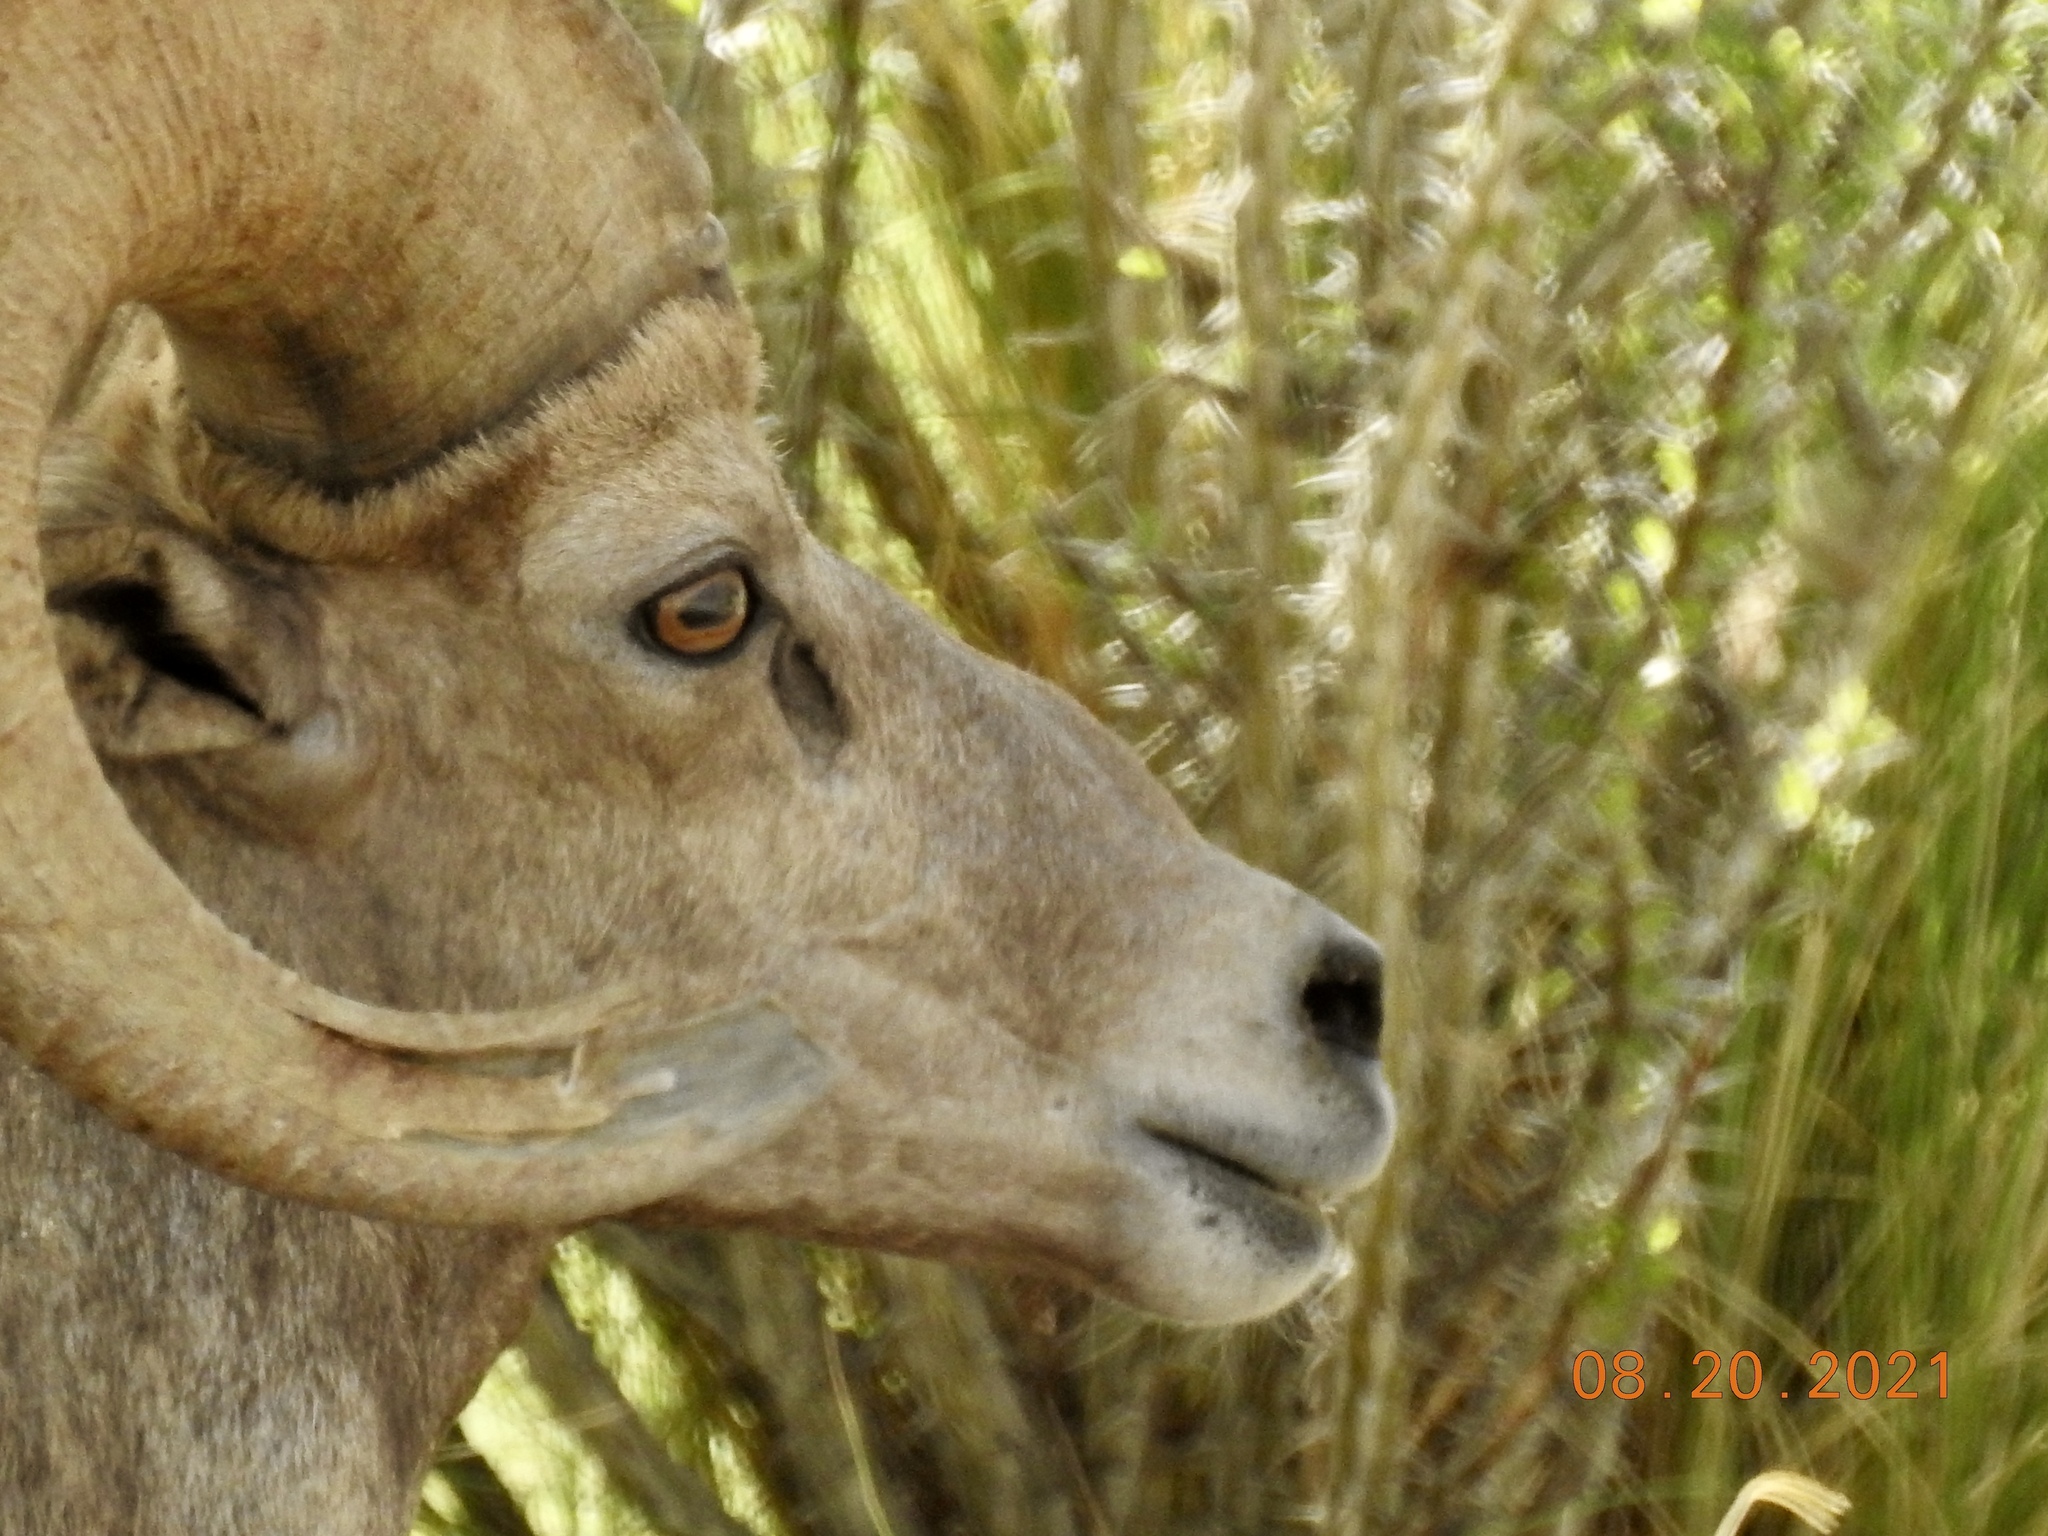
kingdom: Animalia
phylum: Chordata
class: Mammalia
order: Artiodactyla
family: Bovidae
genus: Ovis
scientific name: Ovis canadensis
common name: Bighorn sheep
